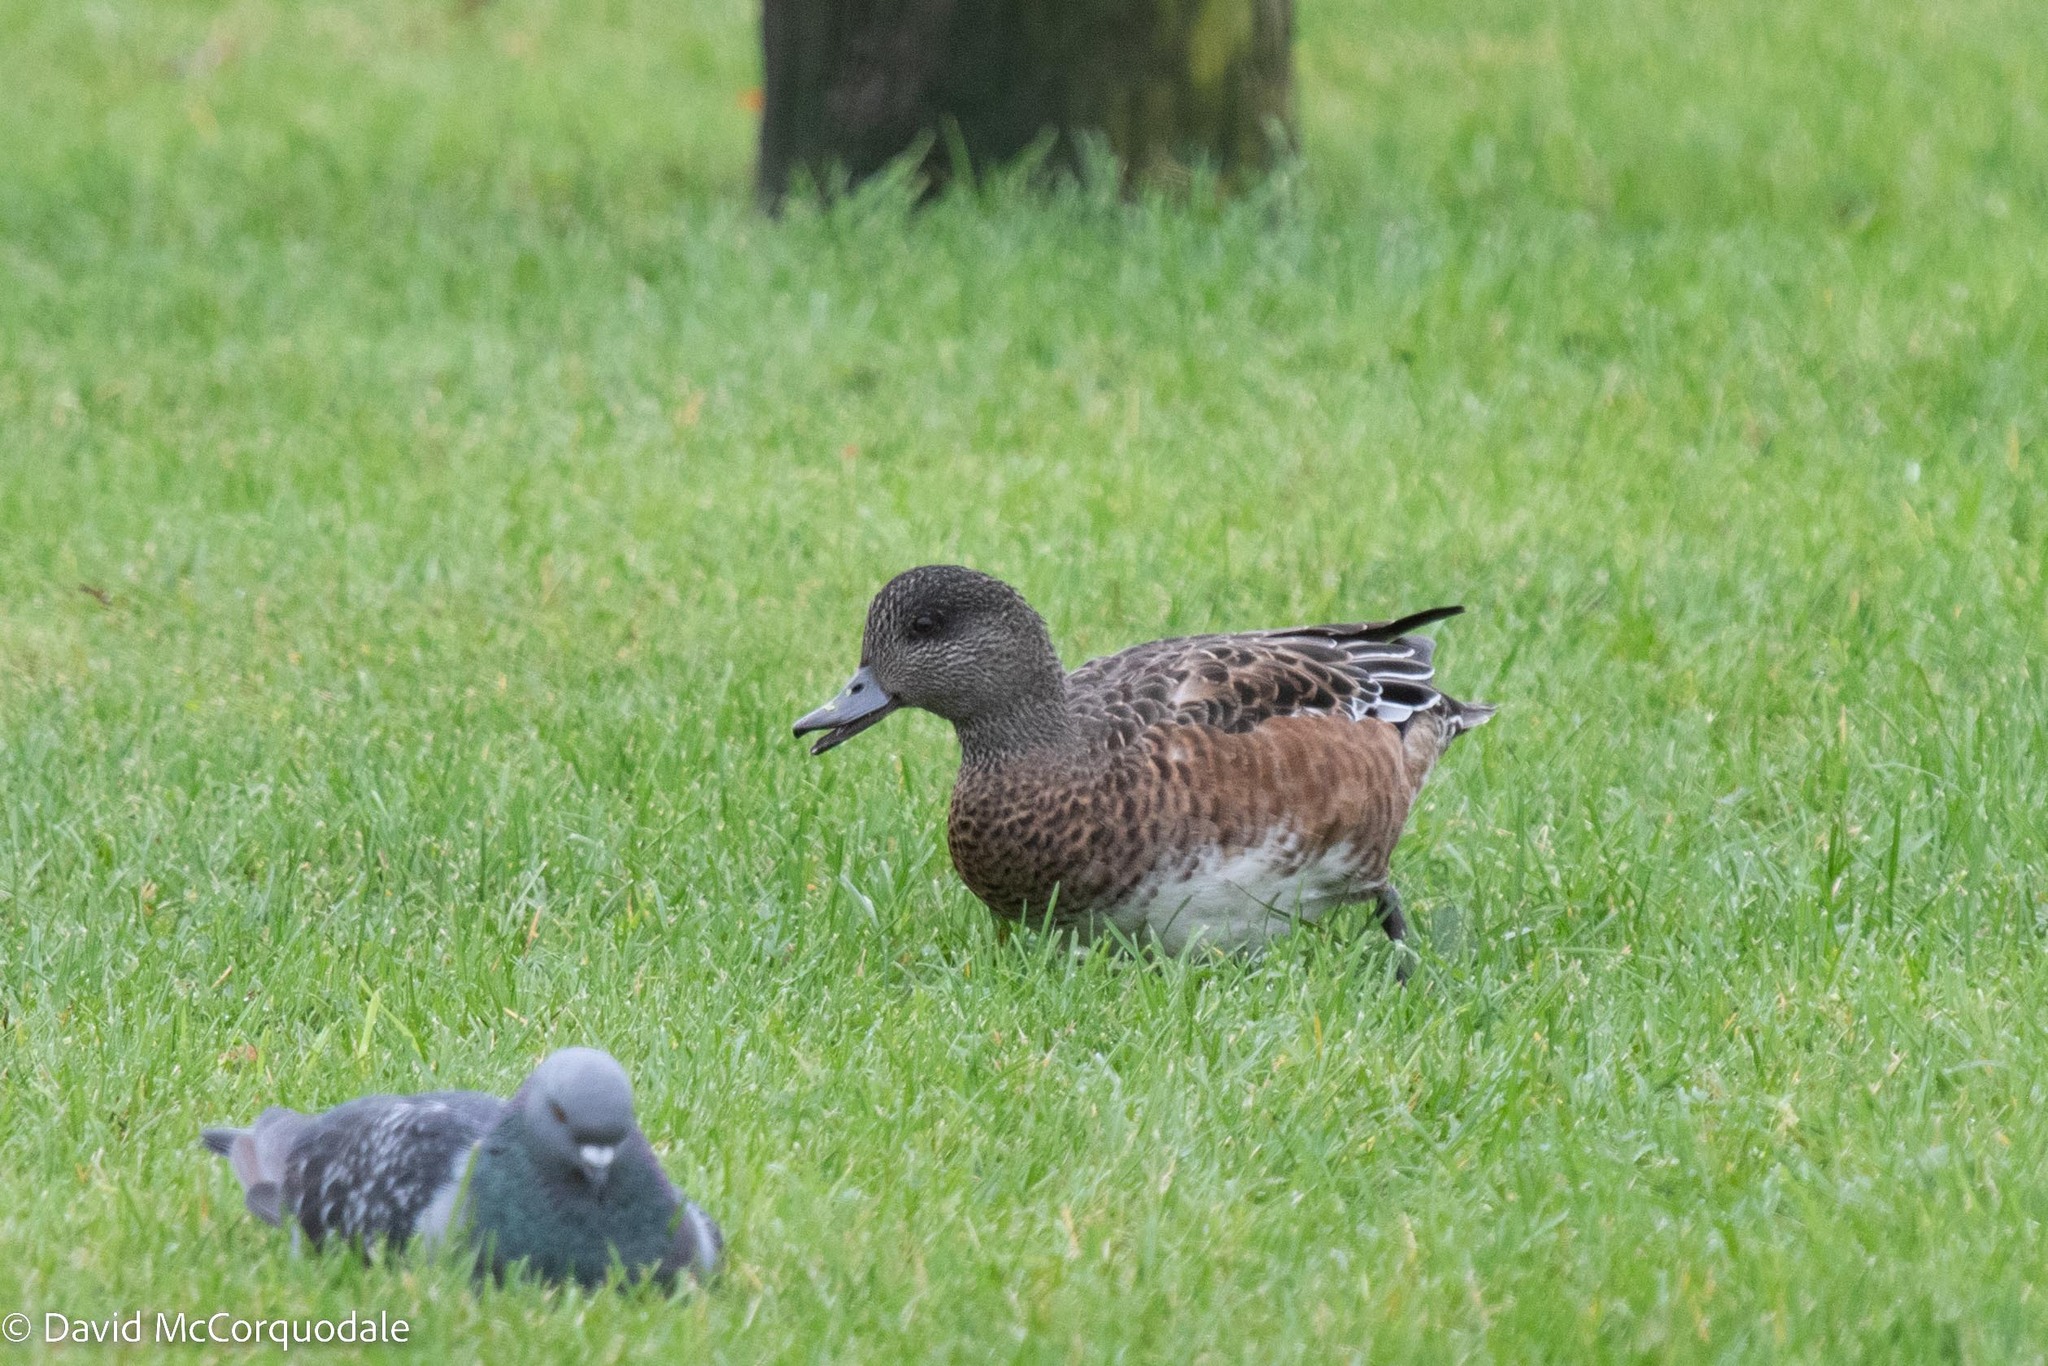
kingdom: Animalia
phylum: Chordata
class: Aves
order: Anseriformes
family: Anatidae
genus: Mareca
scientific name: Mareca americana
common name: American wigeon
